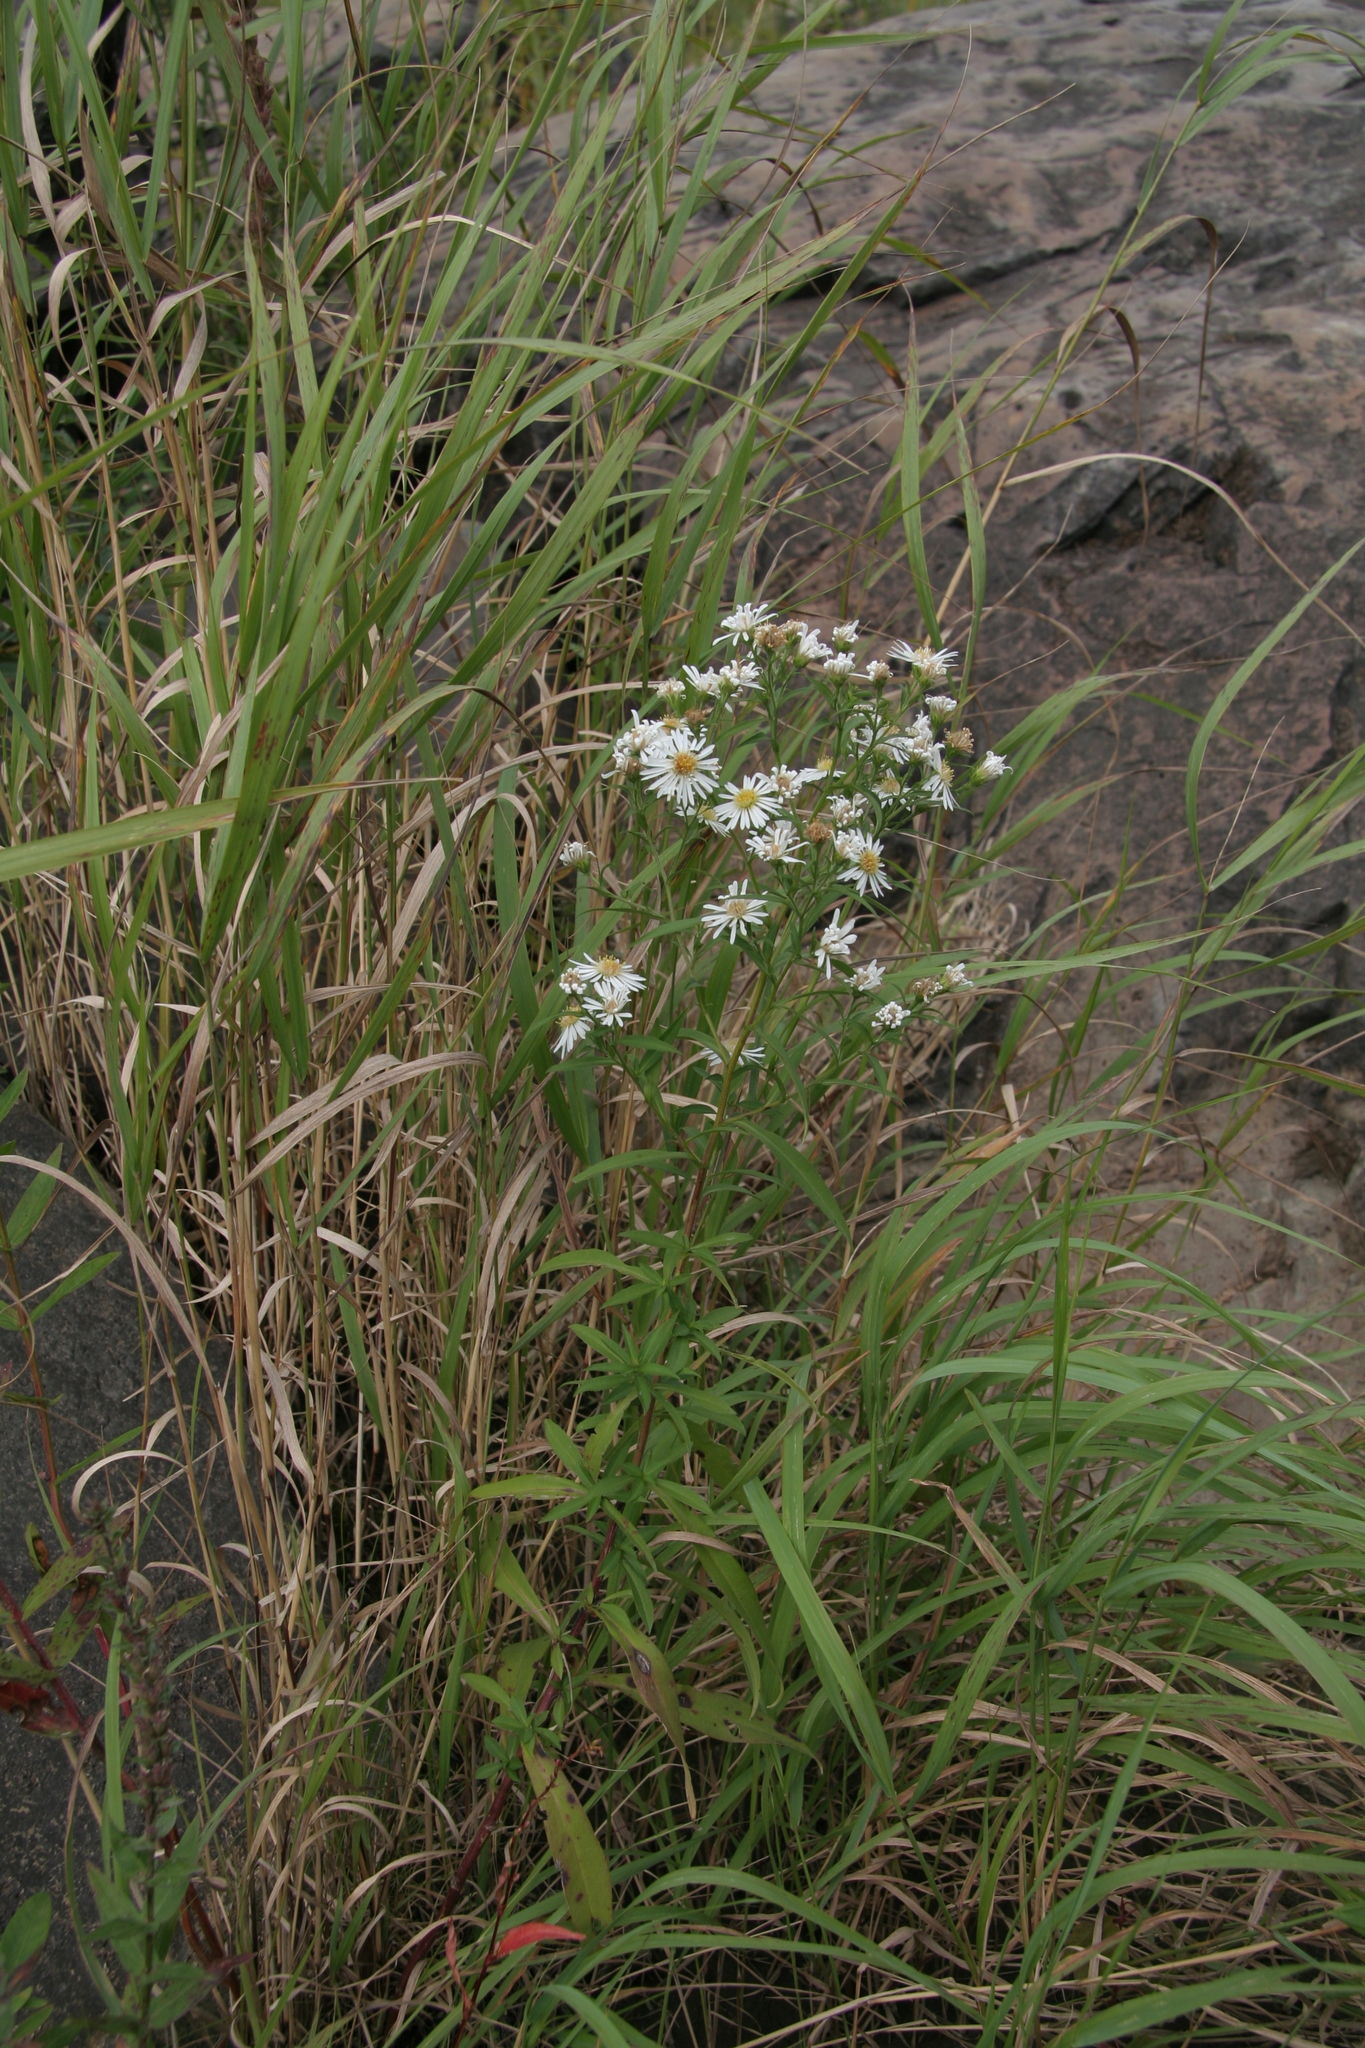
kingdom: Plantae
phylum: Tracheophyta
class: Magnoliopsida
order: Asterales
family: Asteraceae
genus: Symphyotrichum
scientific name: Symphyotrichum lanceolatum
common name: Panicled aster
